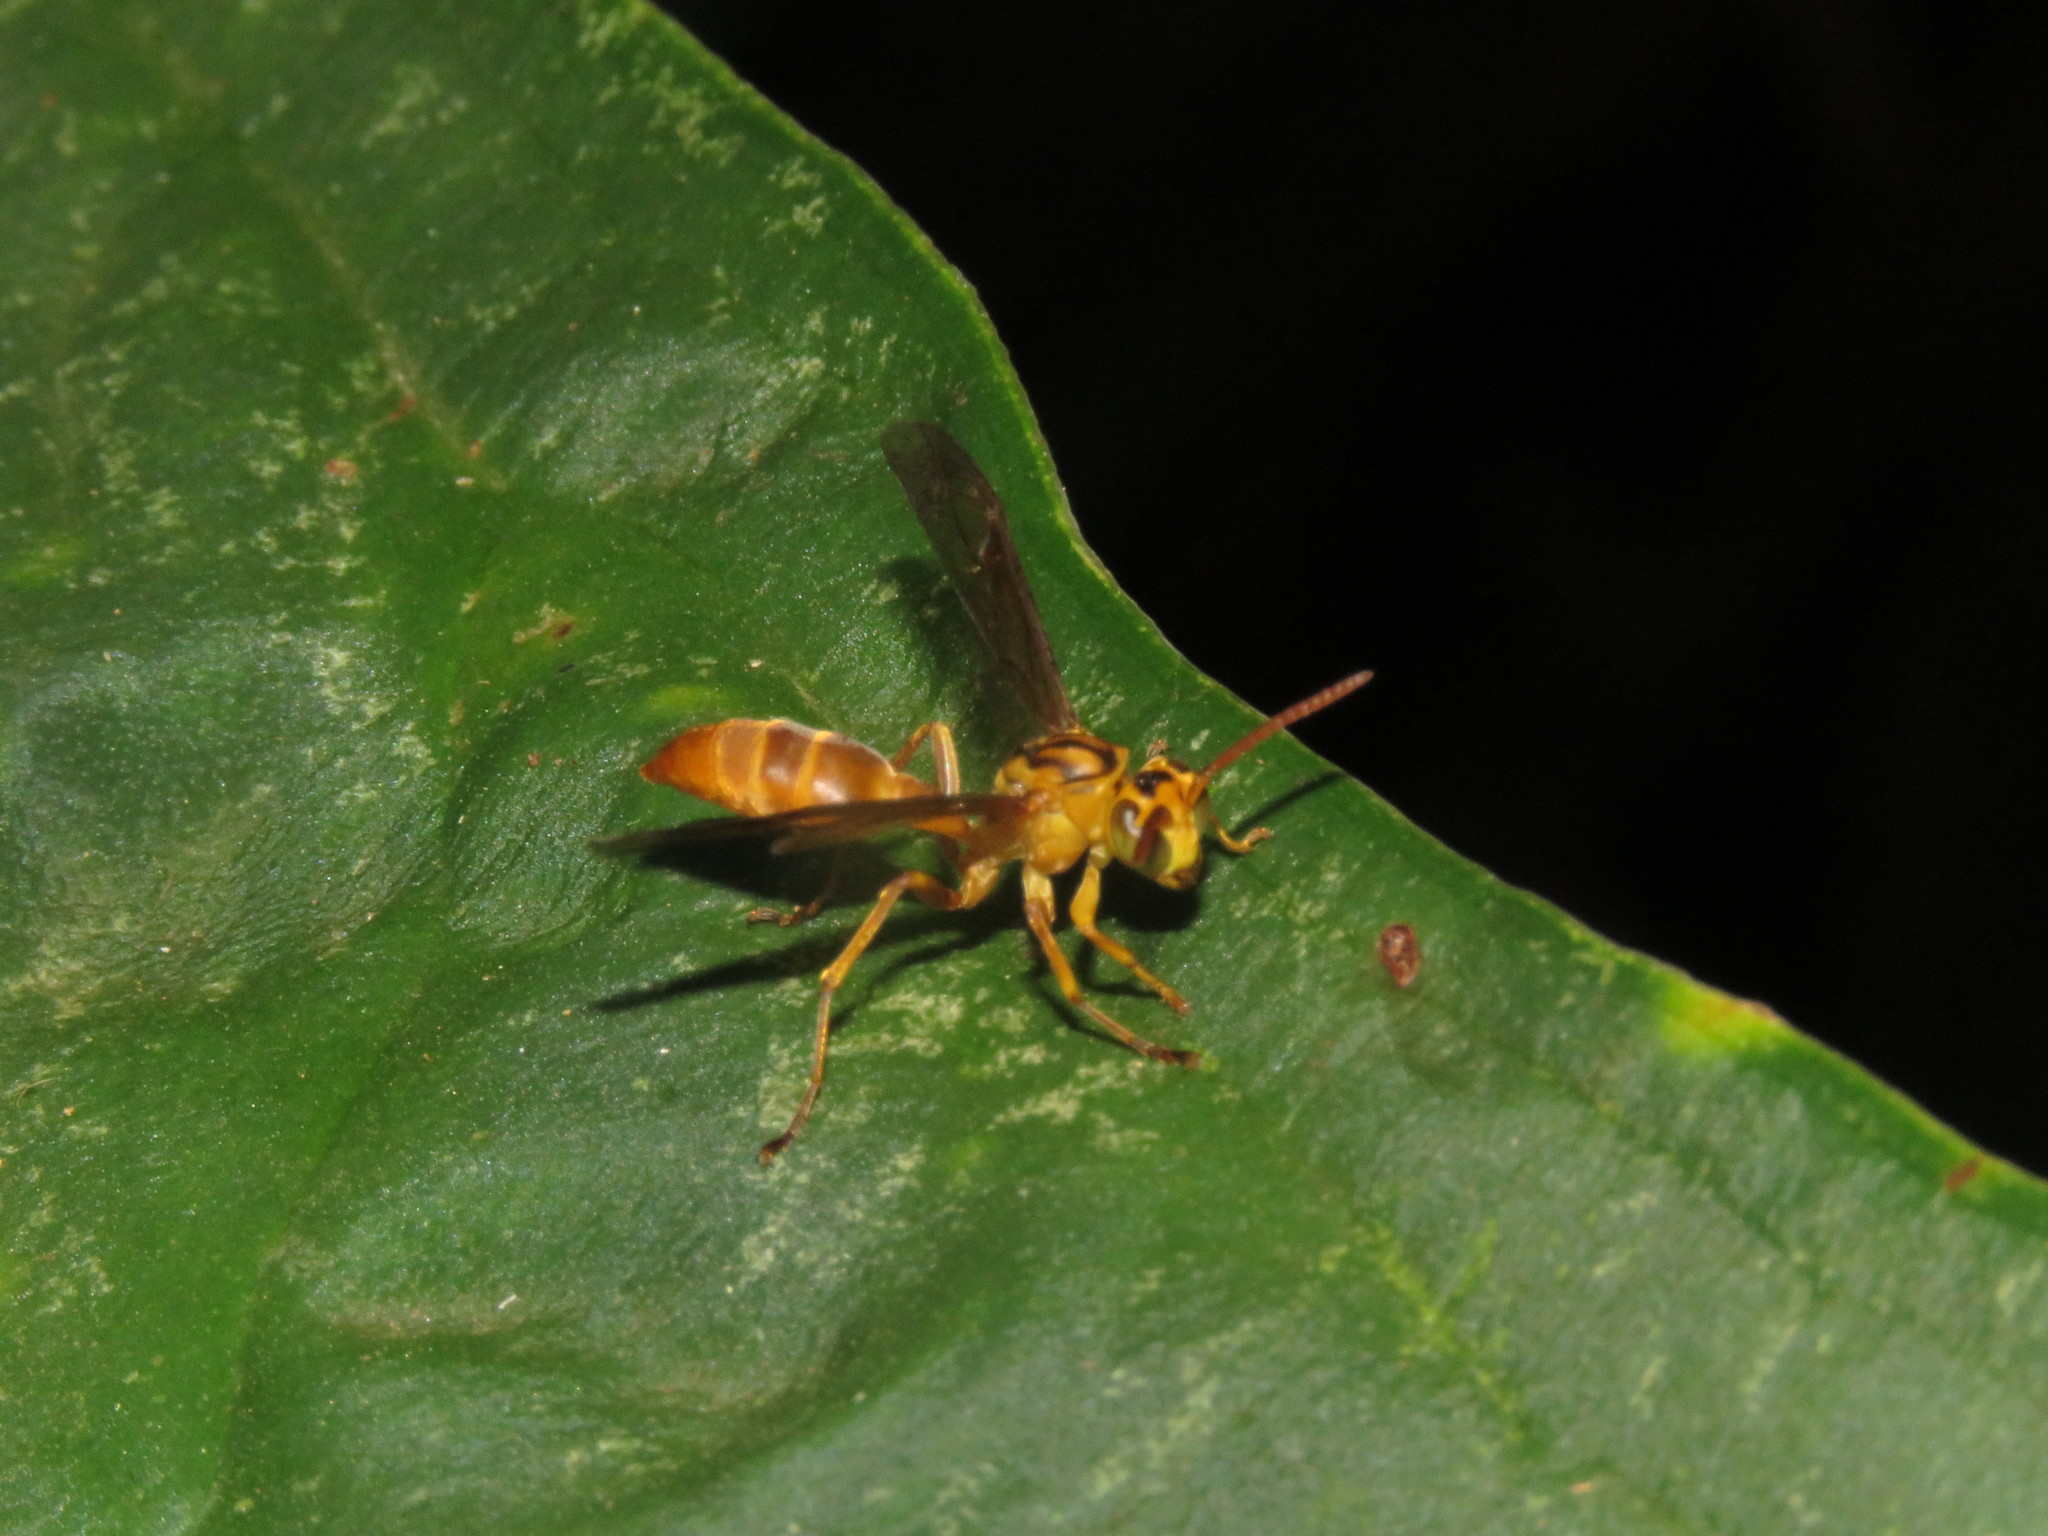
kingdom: Animalia
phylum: Arthropoda
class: Insecta
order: Hymenoptera
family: Vespidae
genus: Agelaia
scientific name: Agelaia myrmecophila
